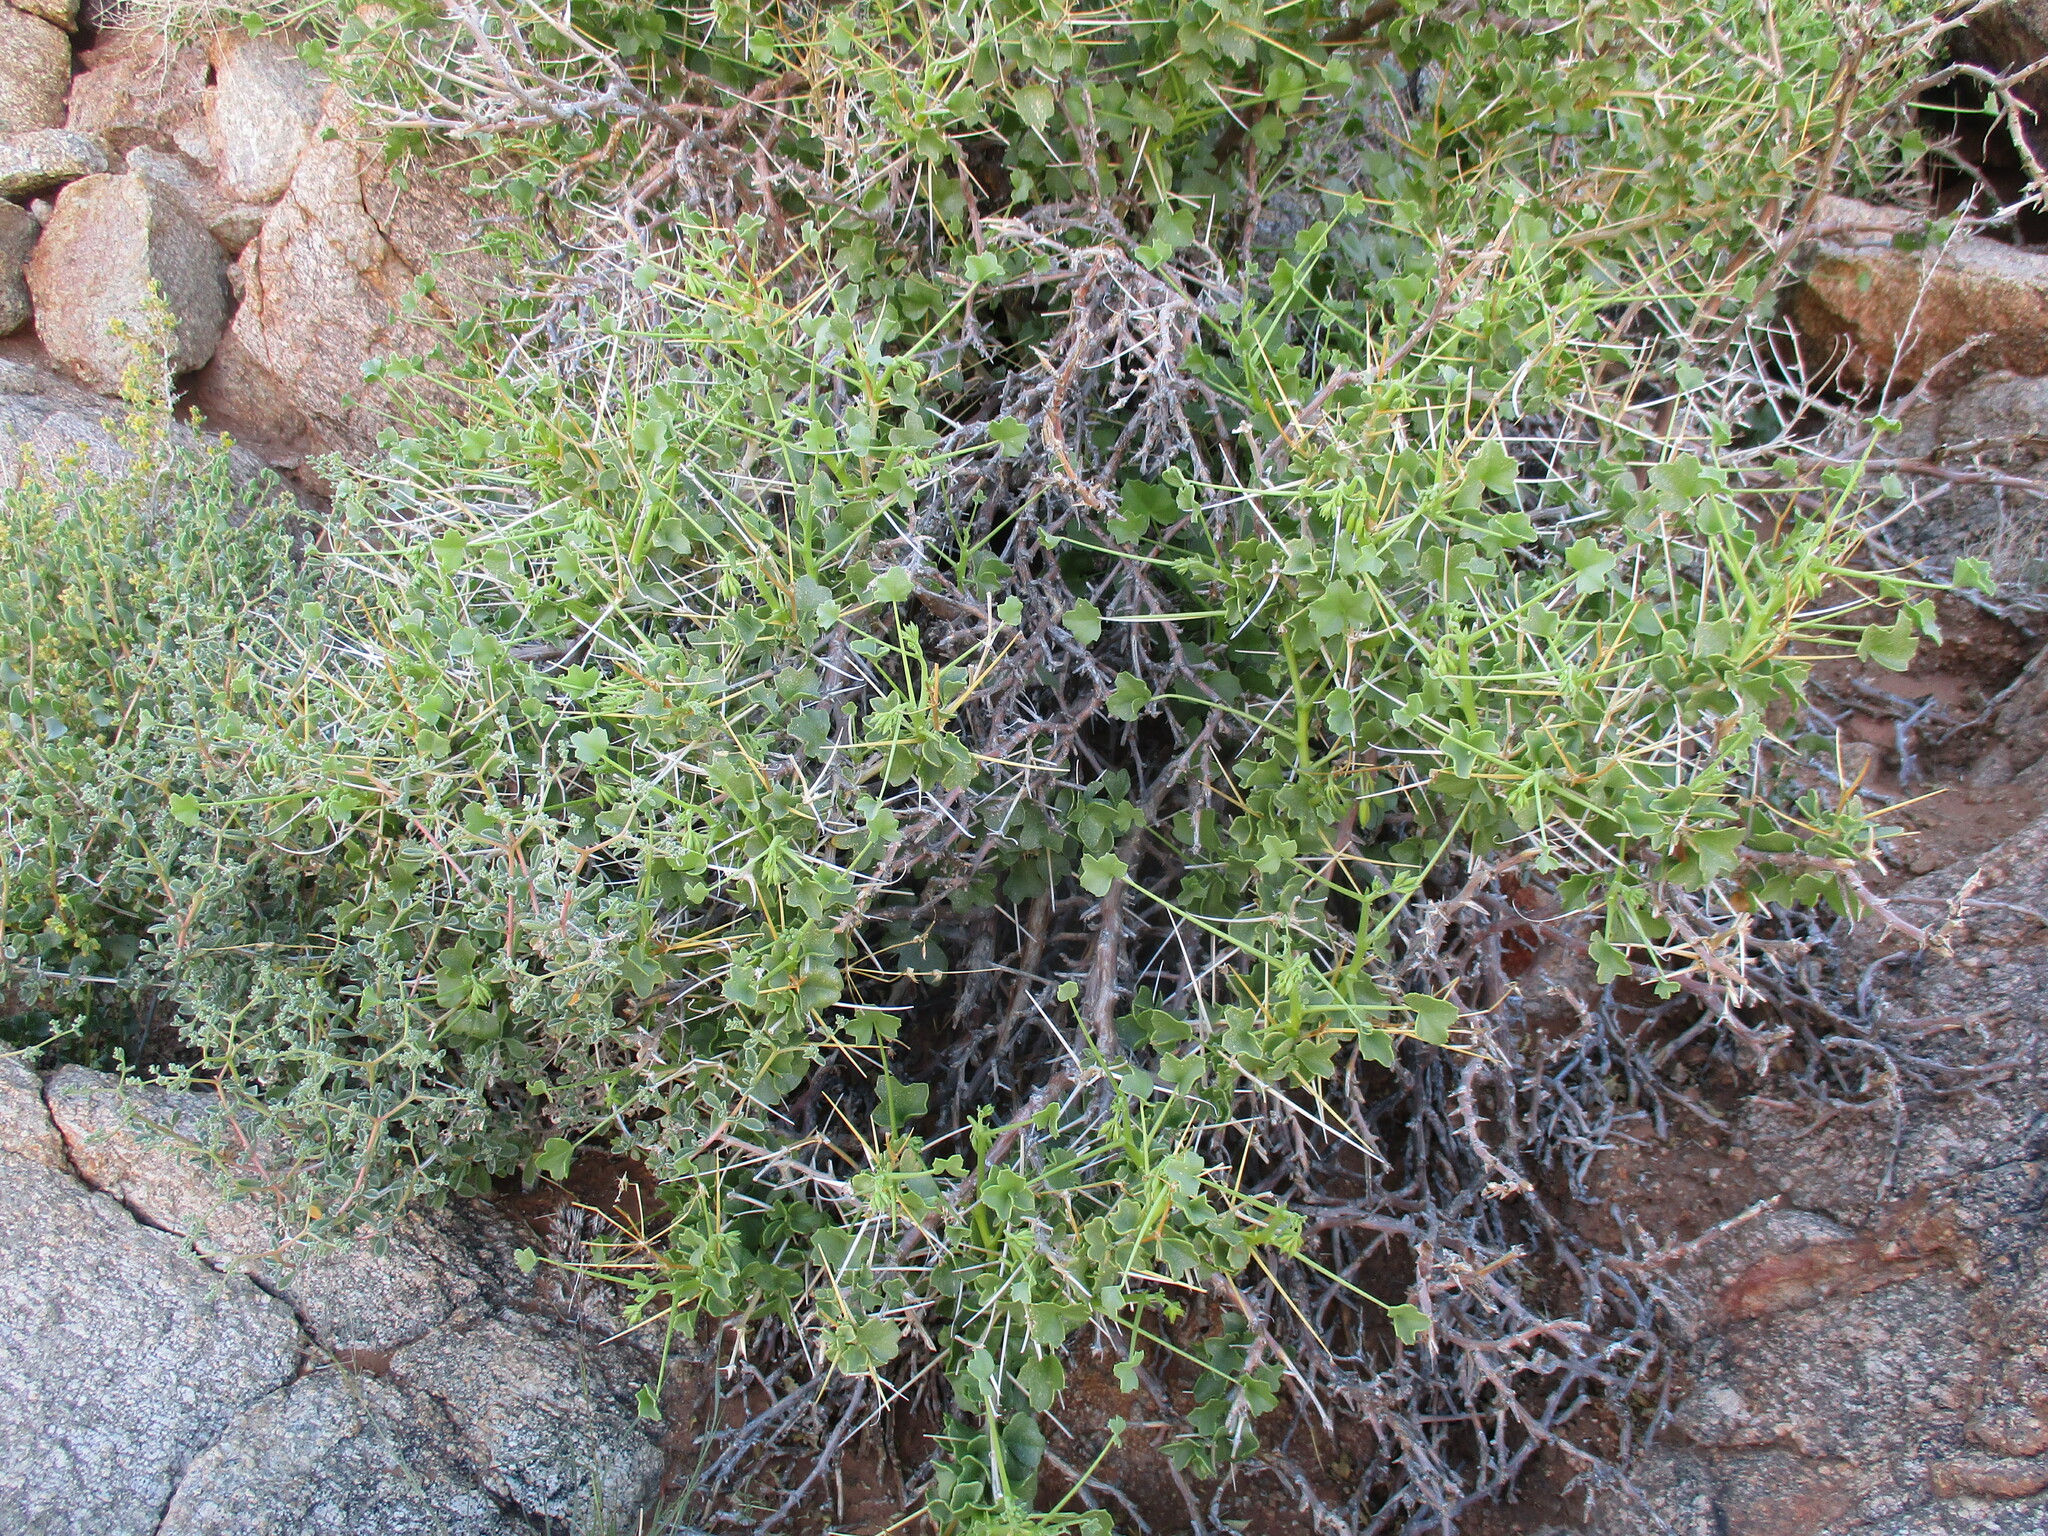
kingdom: Plantae
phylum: Tracheophyta
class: Magnoliopsida
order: Geraniales
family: Geraniaceae
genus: Pelargonium
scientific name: Pelargonium spinosum
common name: Thorny pelargonium
